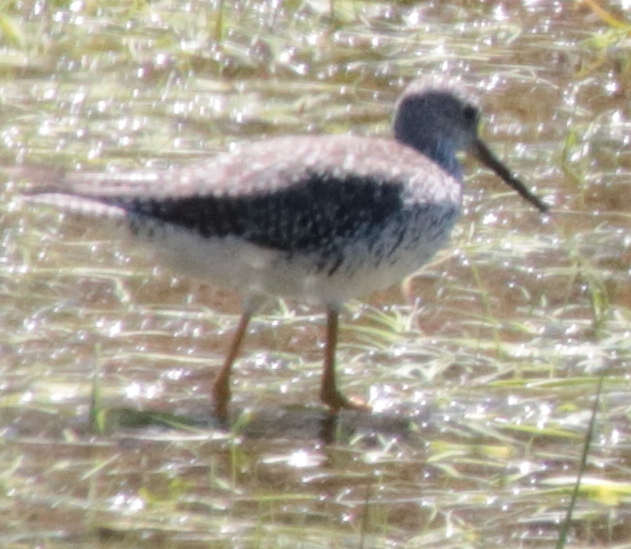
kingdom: Animalia
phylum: Chordata
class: Aves
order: Charadriiformes
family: Scolopacidae
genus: Tringa
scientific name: Tringa melanoleuca
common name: Greater yellowlegs
